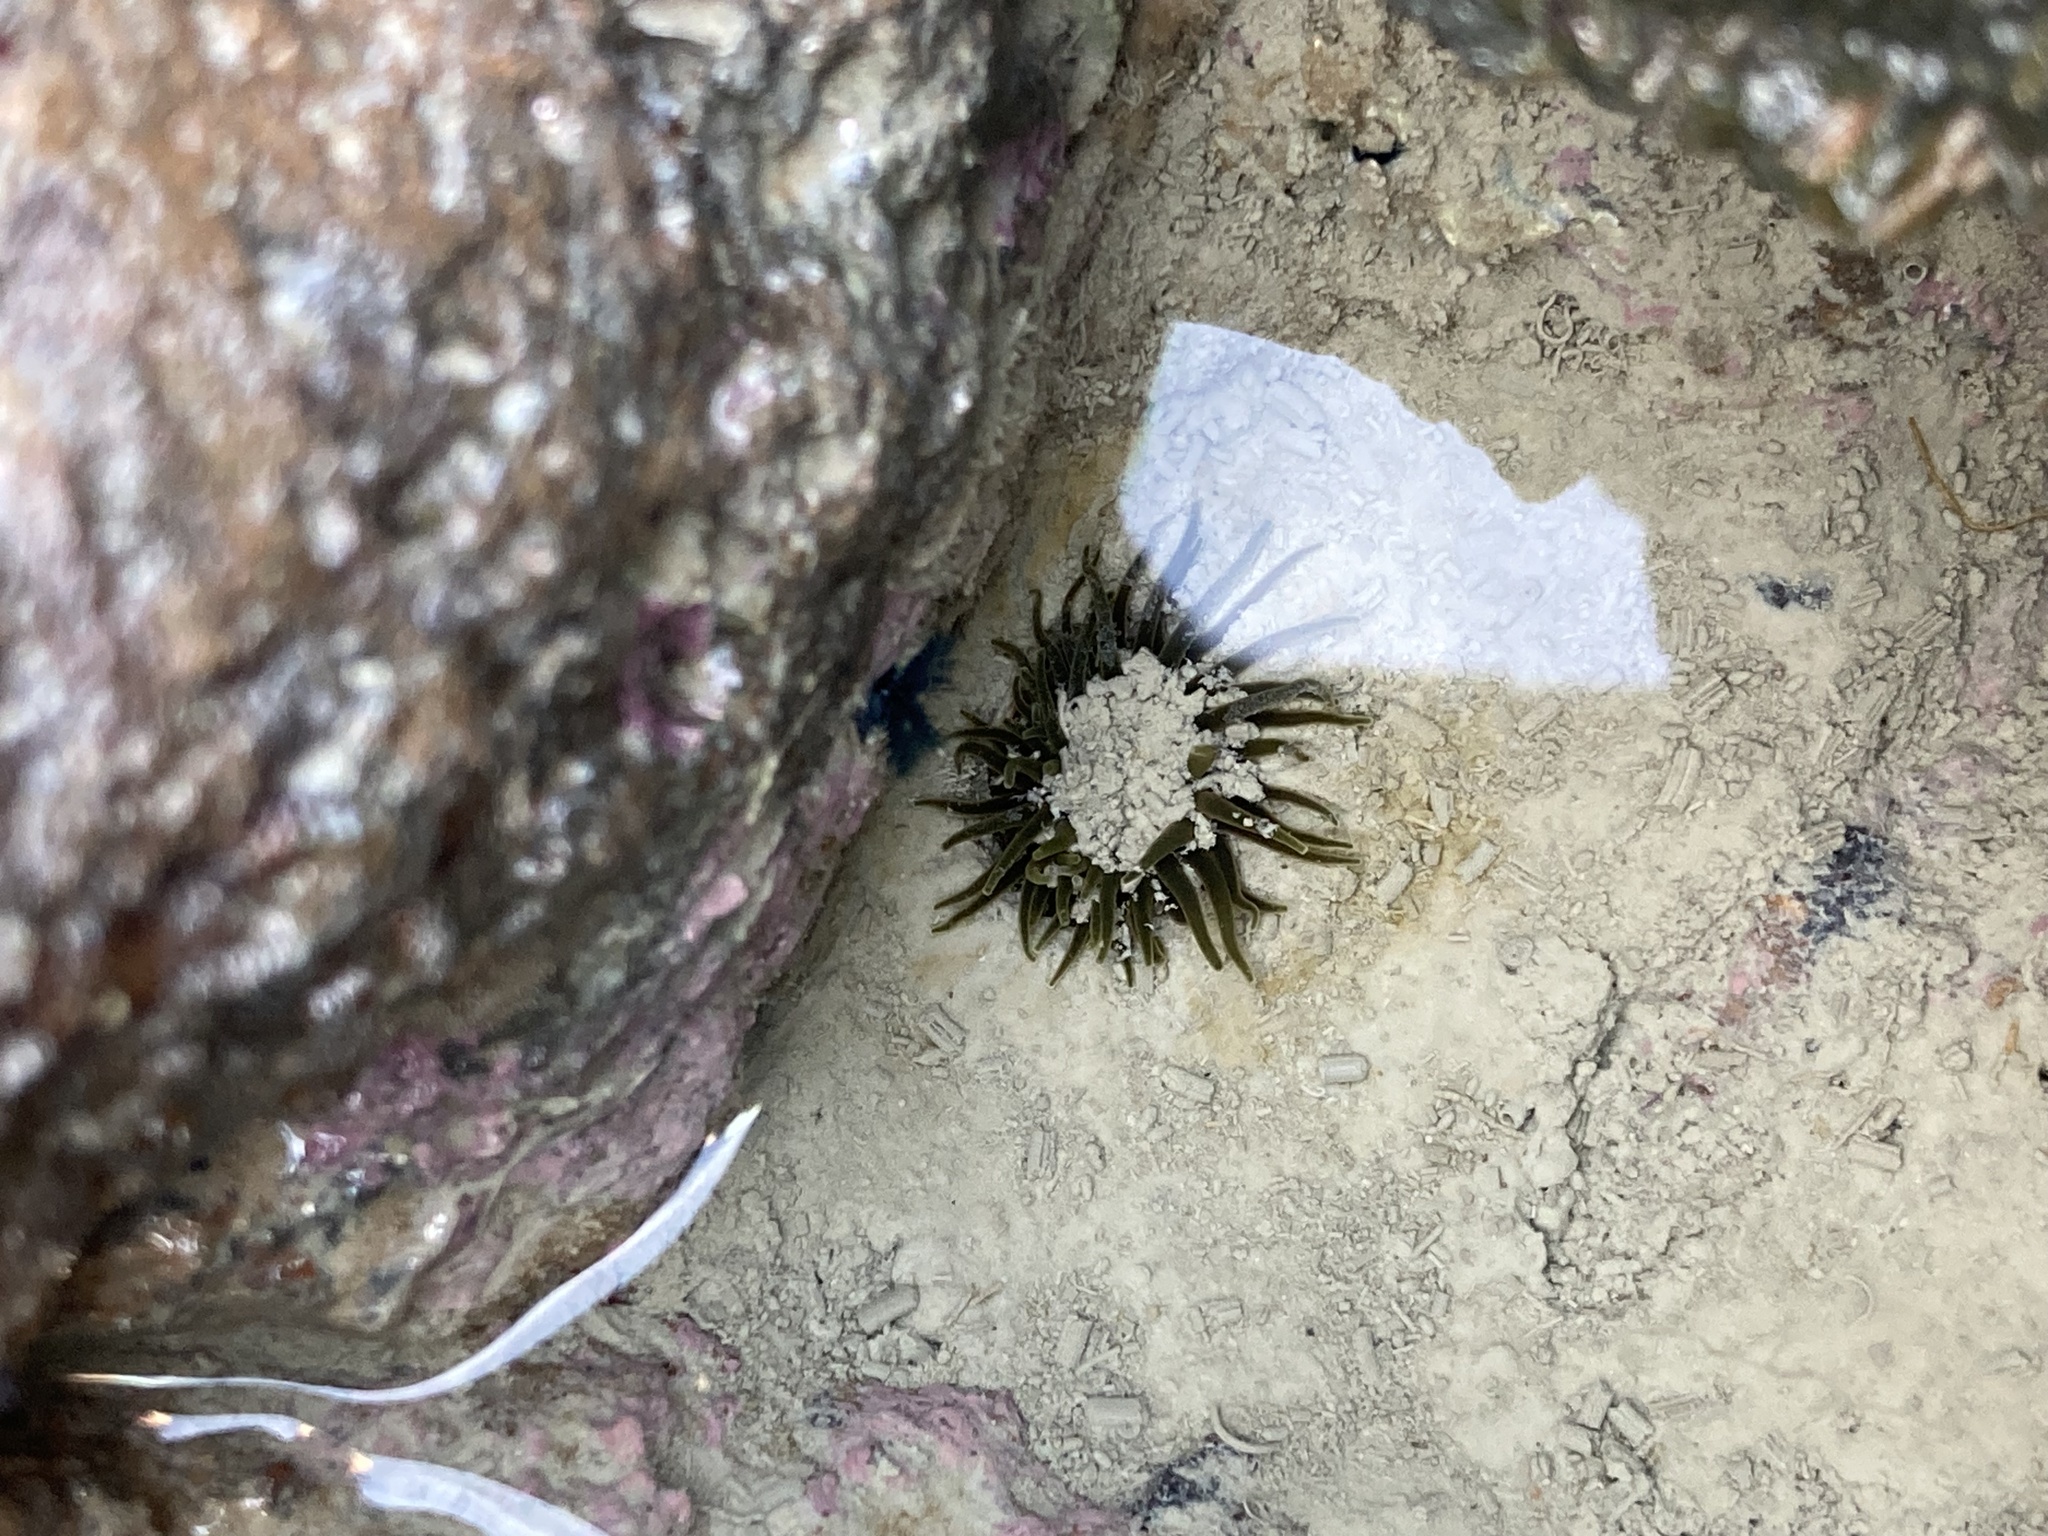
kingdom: Animalia
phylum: Cnidaria
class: Anthozoa
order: Actiniaria
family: Actiniidae
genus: Isactinia
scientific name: Isactinia olivacea
